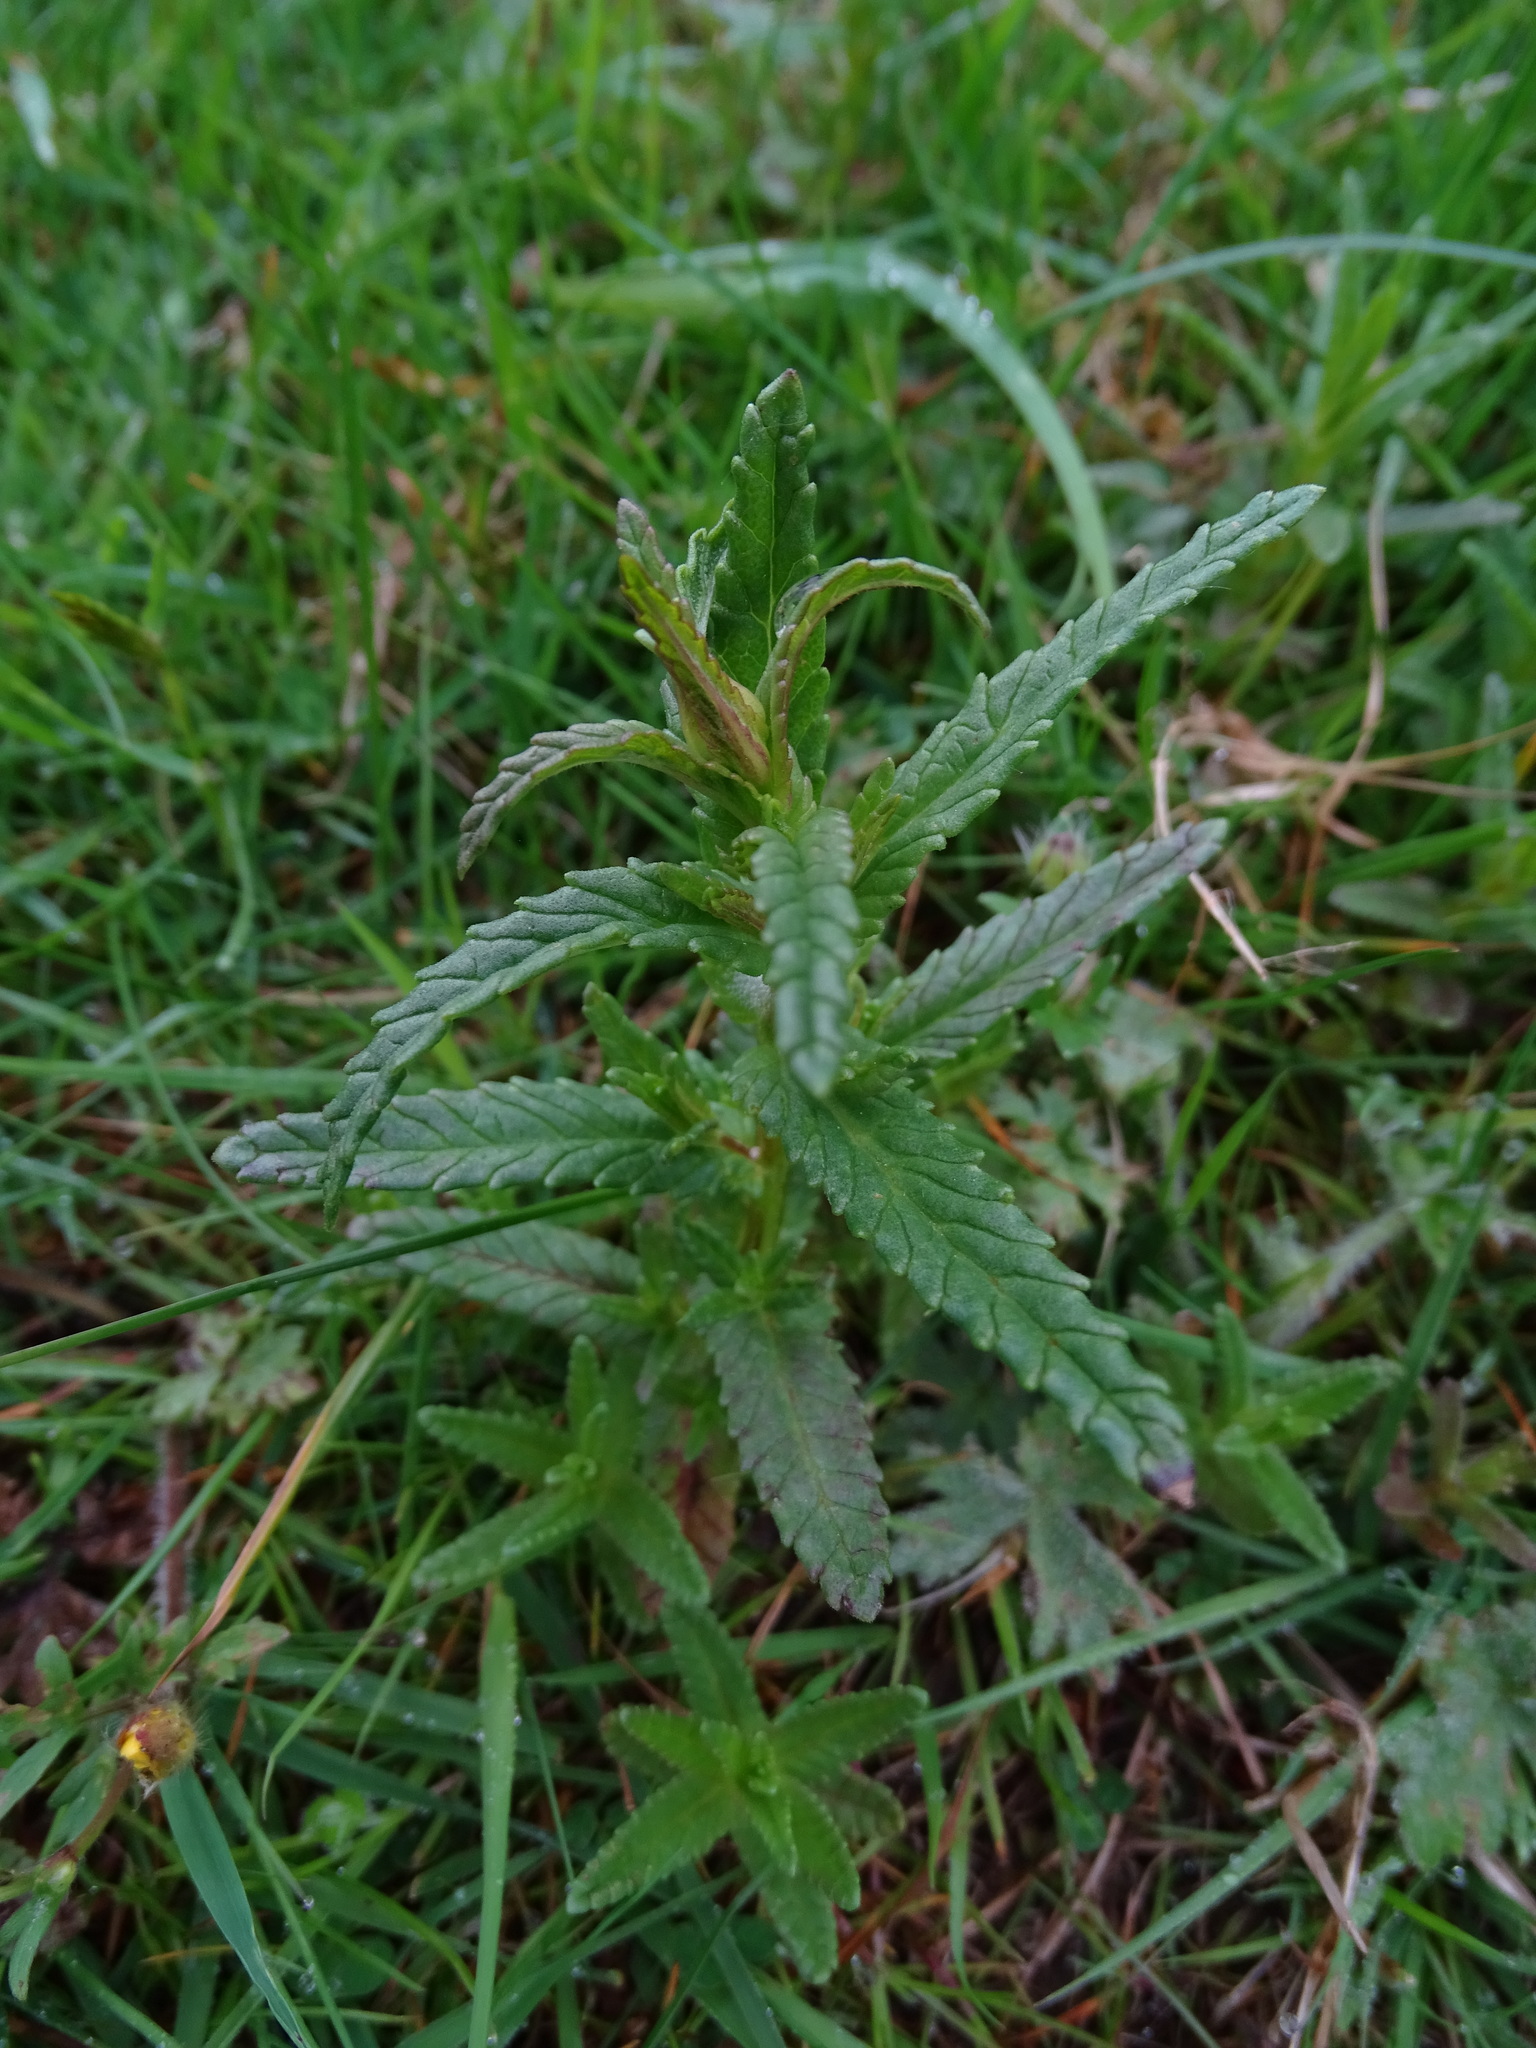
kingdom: Plantae
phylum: Tracheophyta
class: Magnoliopsida
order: Lamiales
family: Orobanchaceae
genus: Rhinanthus
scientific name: Rhinanthus minor
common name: Yellow-rattle
